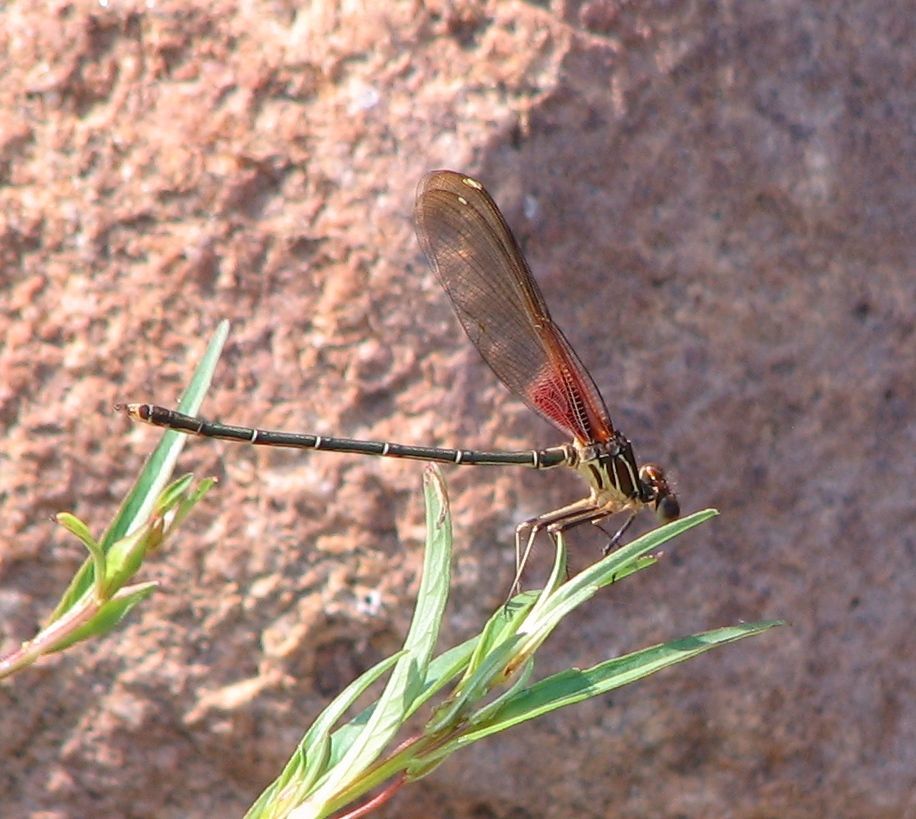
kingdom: Animalia
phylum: Arthropoda
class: Insecta
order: Odonata
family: Calopterygidae
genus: Hetaerina
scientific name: Hetaerina americana
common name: American rubyspot
